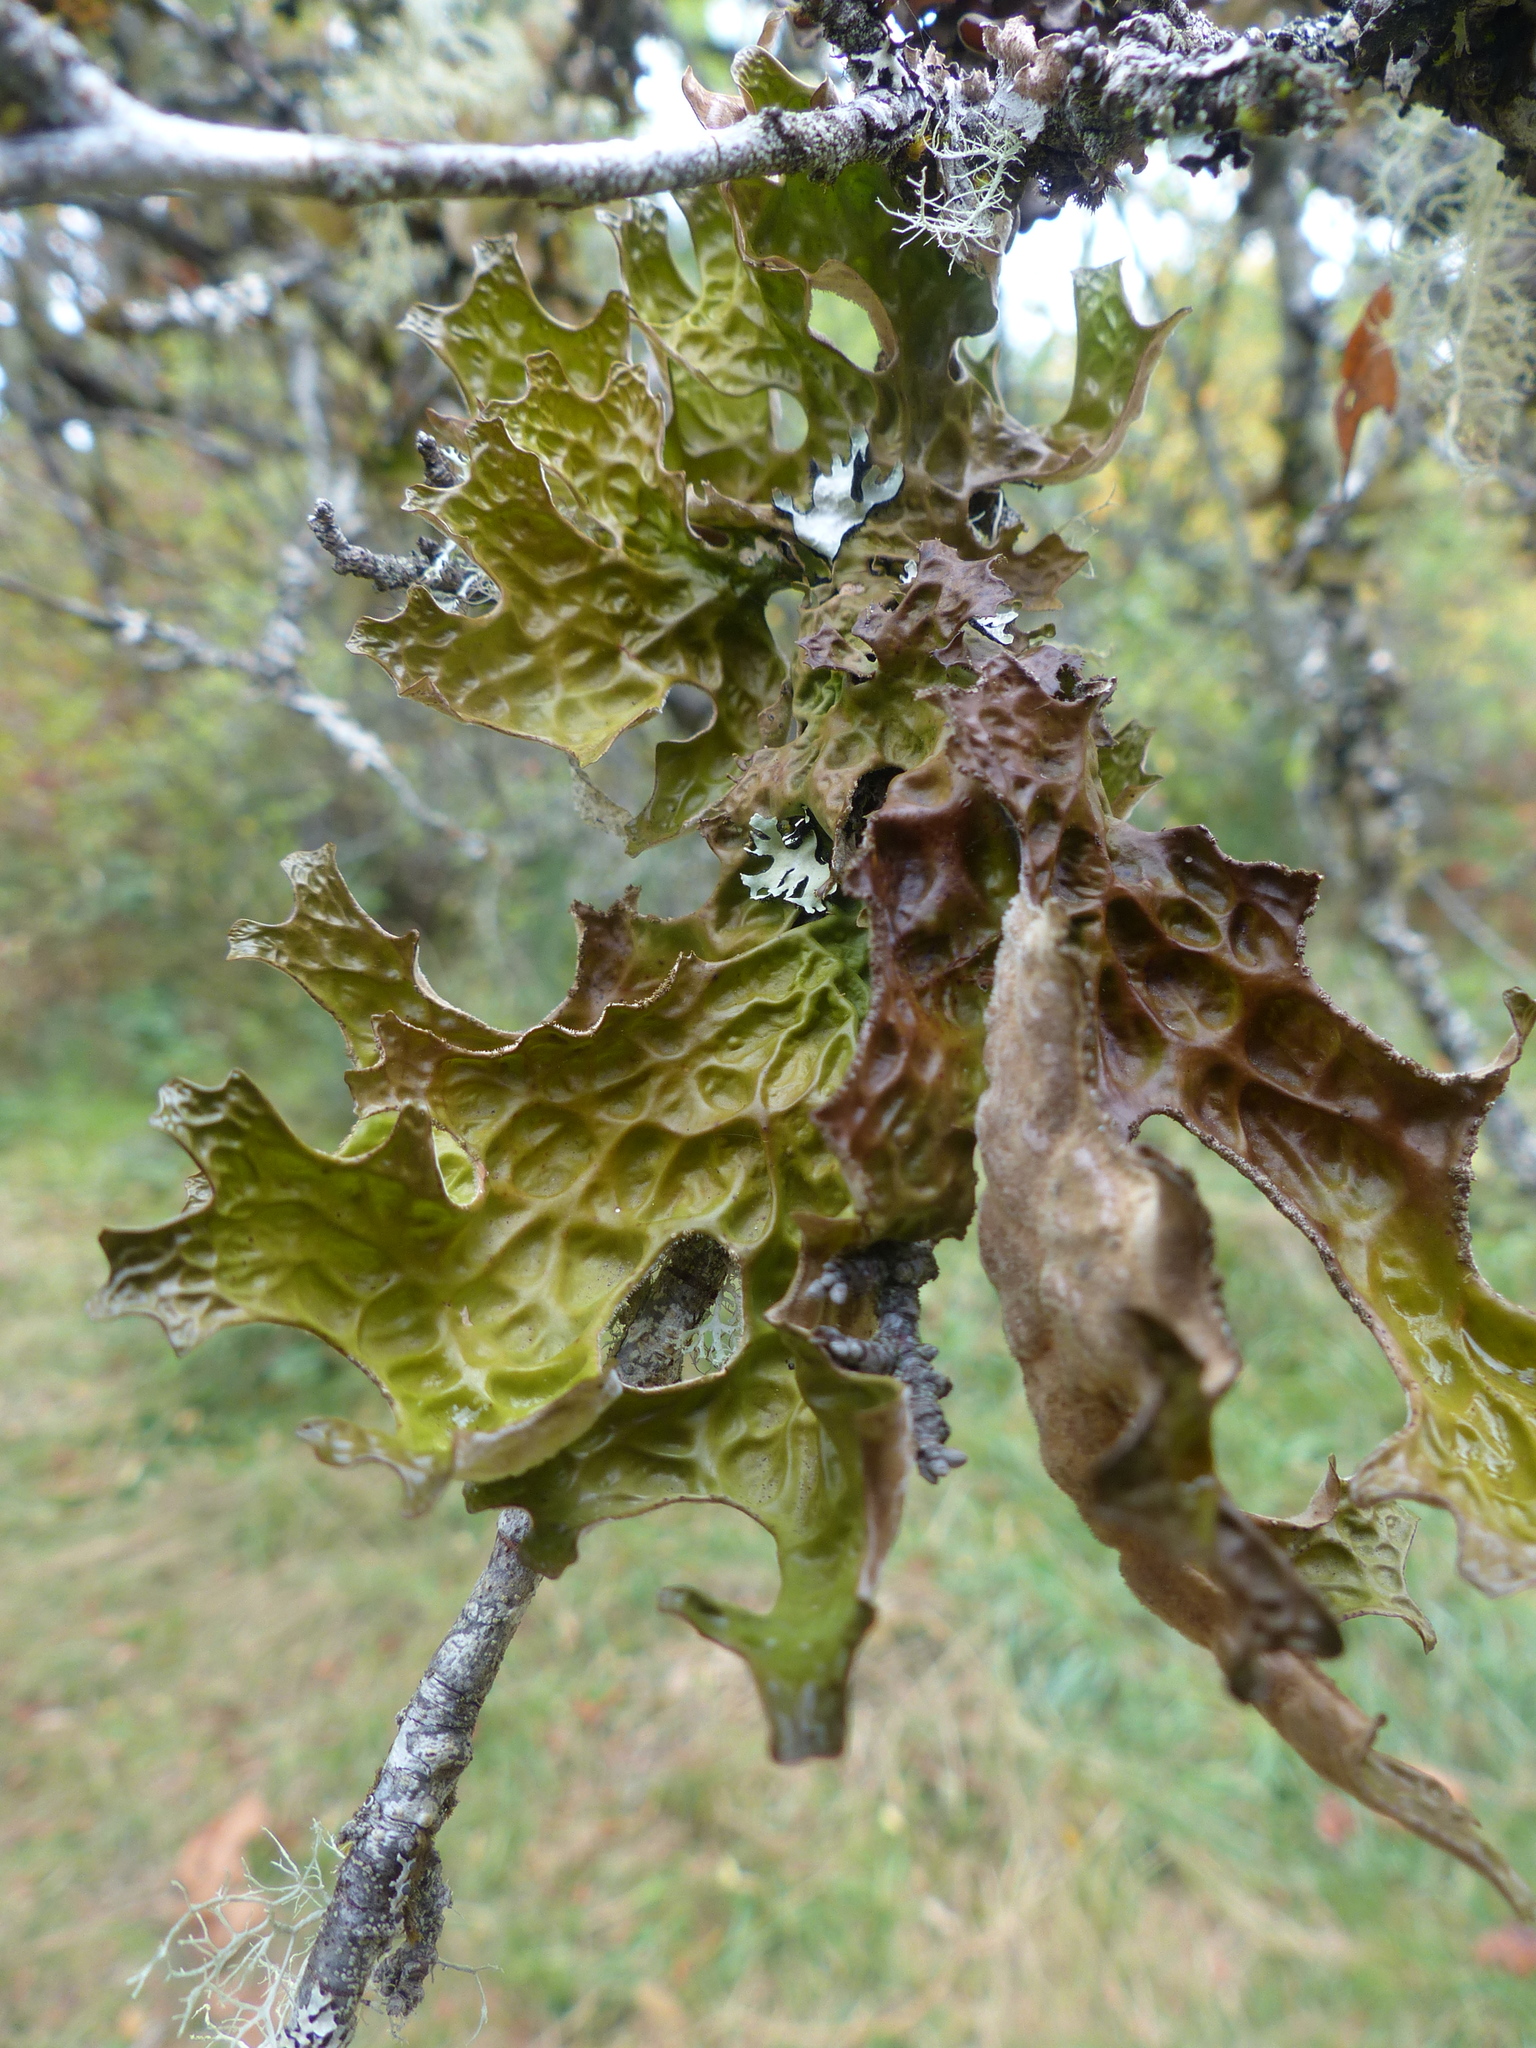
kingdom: Fungi
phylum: Ascomycota
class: Lecanoromycetes
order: Peltigerales
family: Lobariaceae
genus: Lobaria
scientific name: Lobaria pulmonaria
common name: Lungwort
